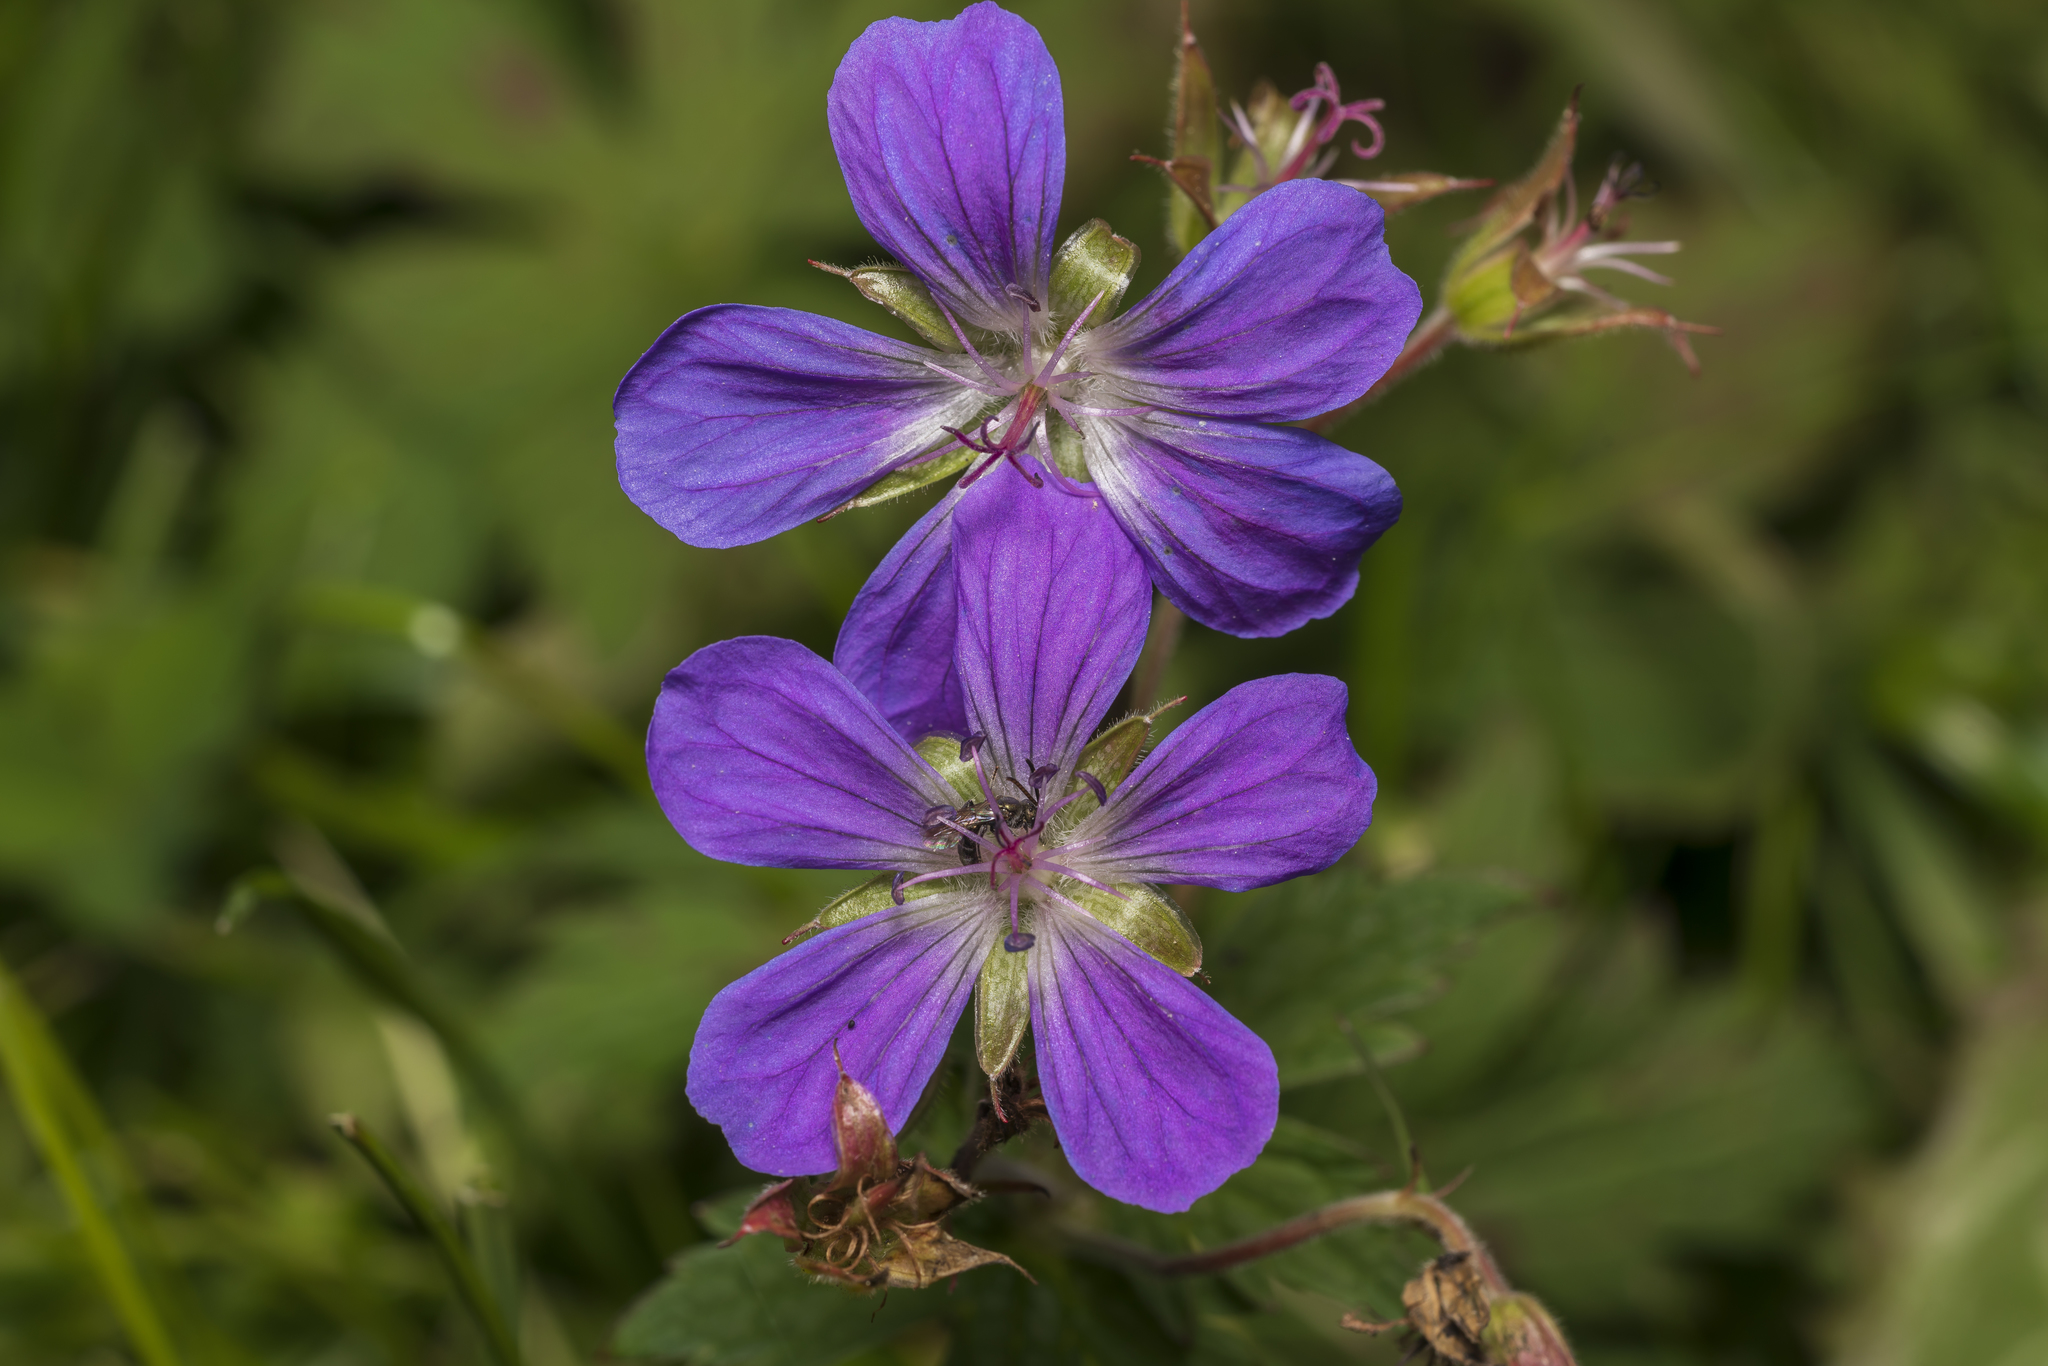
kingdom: Plantae
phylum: Tracheophyta
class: Magnoliopsida
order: Geraniales
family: Geraniaceae
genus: Geranium
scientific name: Geranium sylvaticum
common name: Wood crane's-bill
